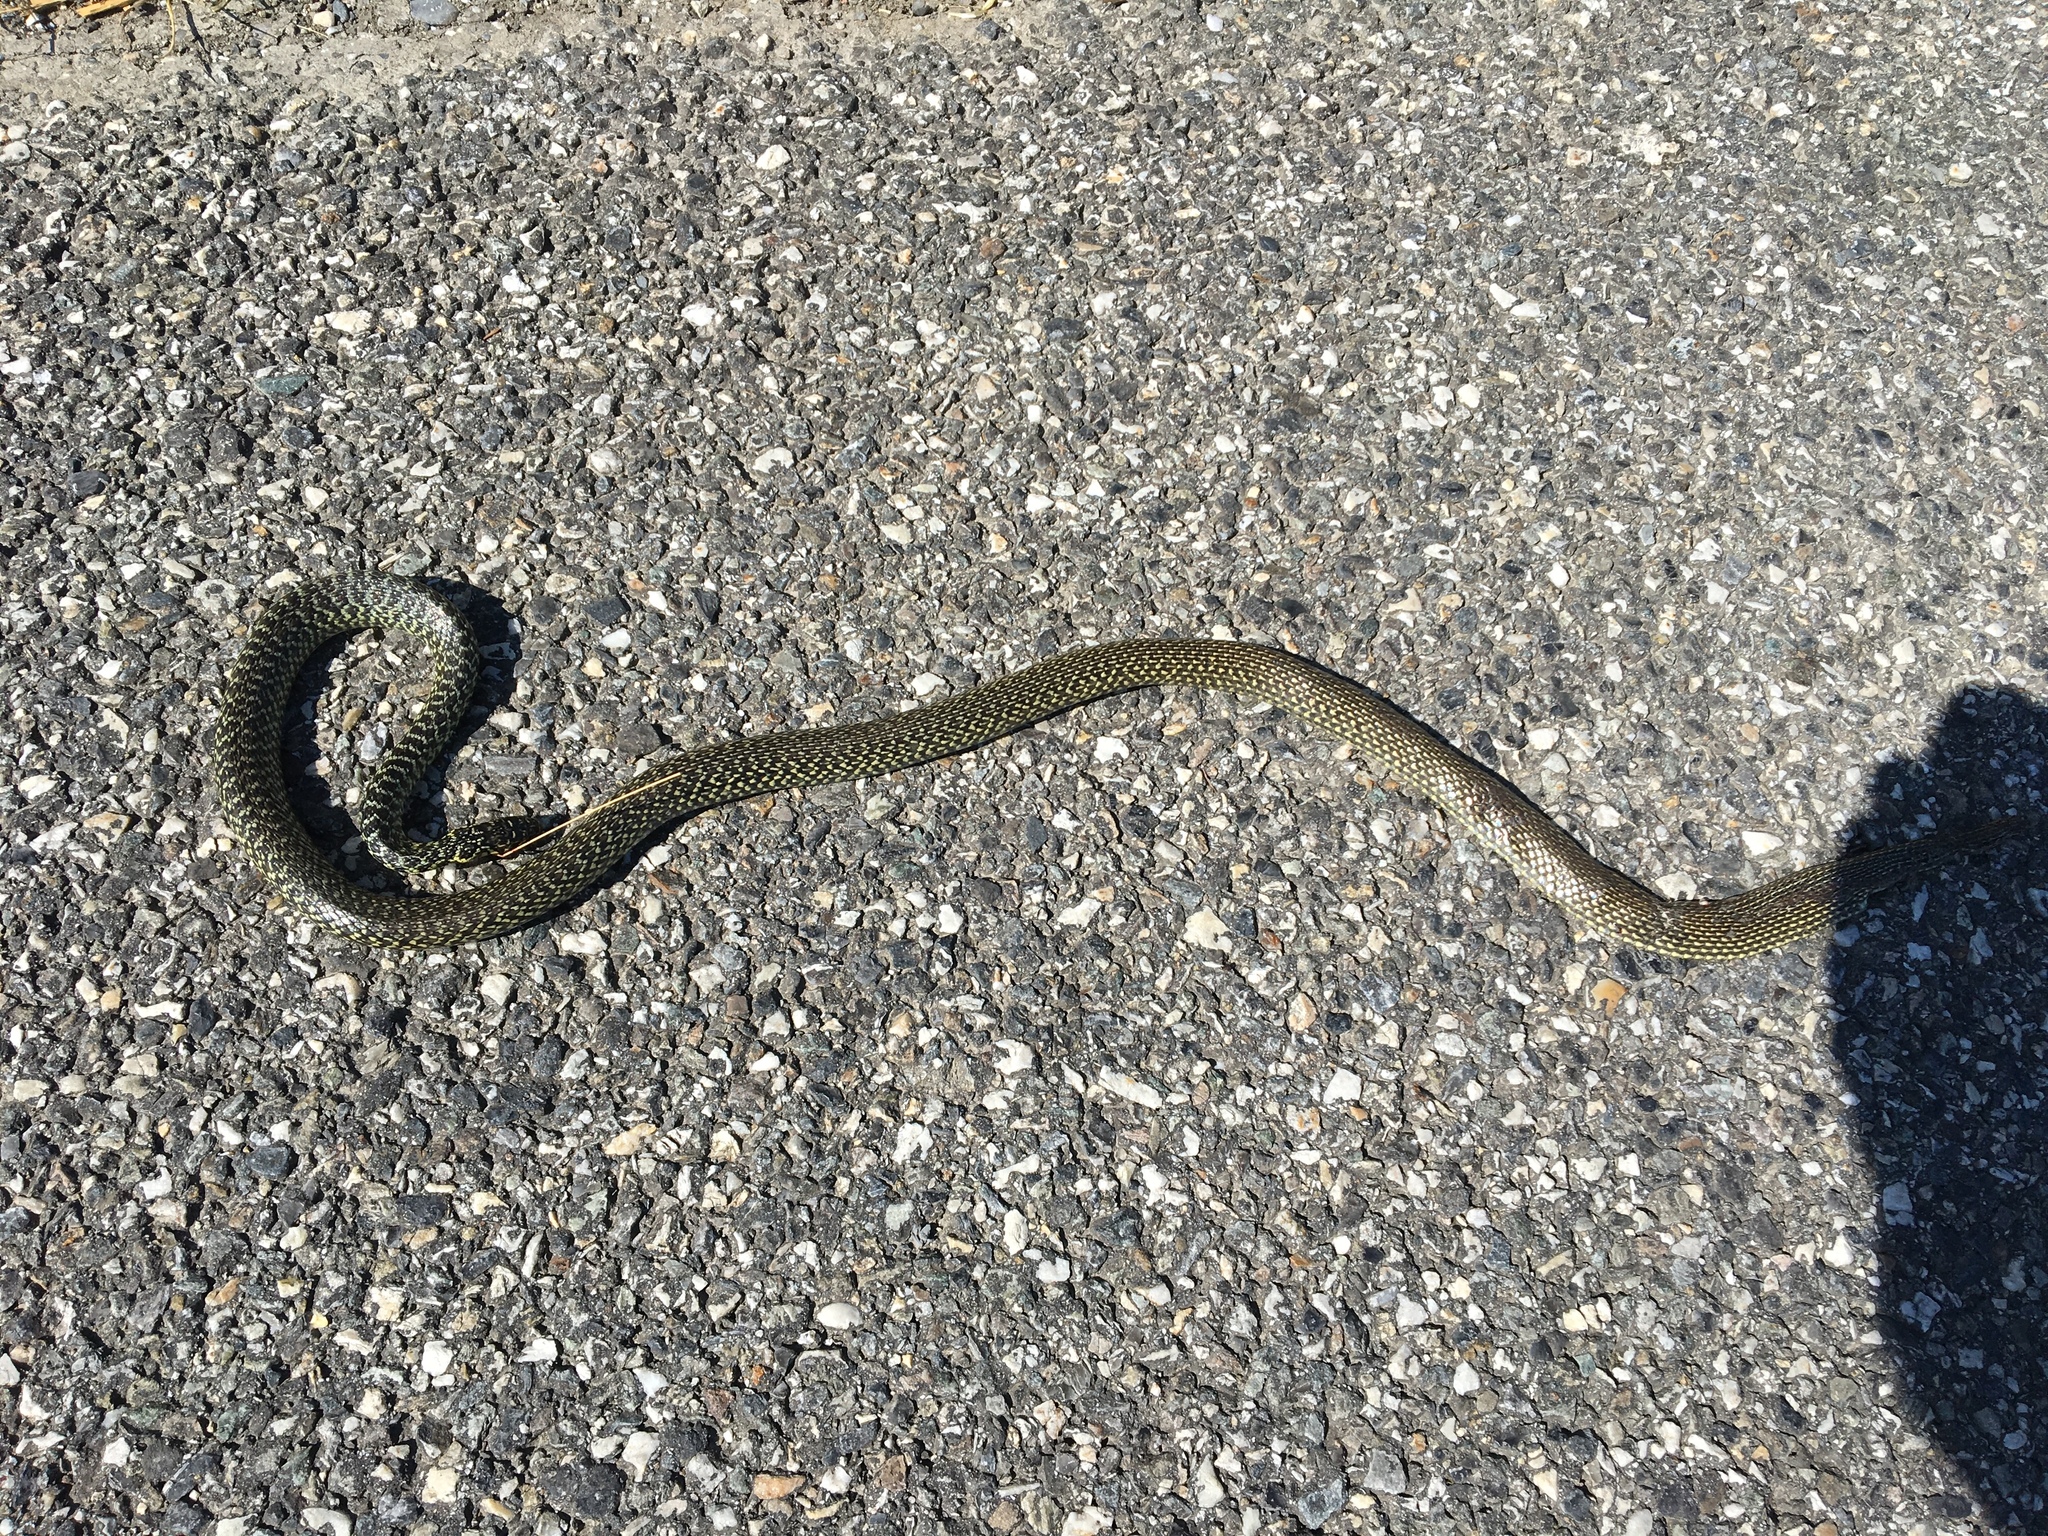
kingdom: Animalia
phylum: Chordata
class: Squamata
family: Colubridae
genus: Hierophis
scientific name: Hierophis viridiflavus
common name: Green whip snake
